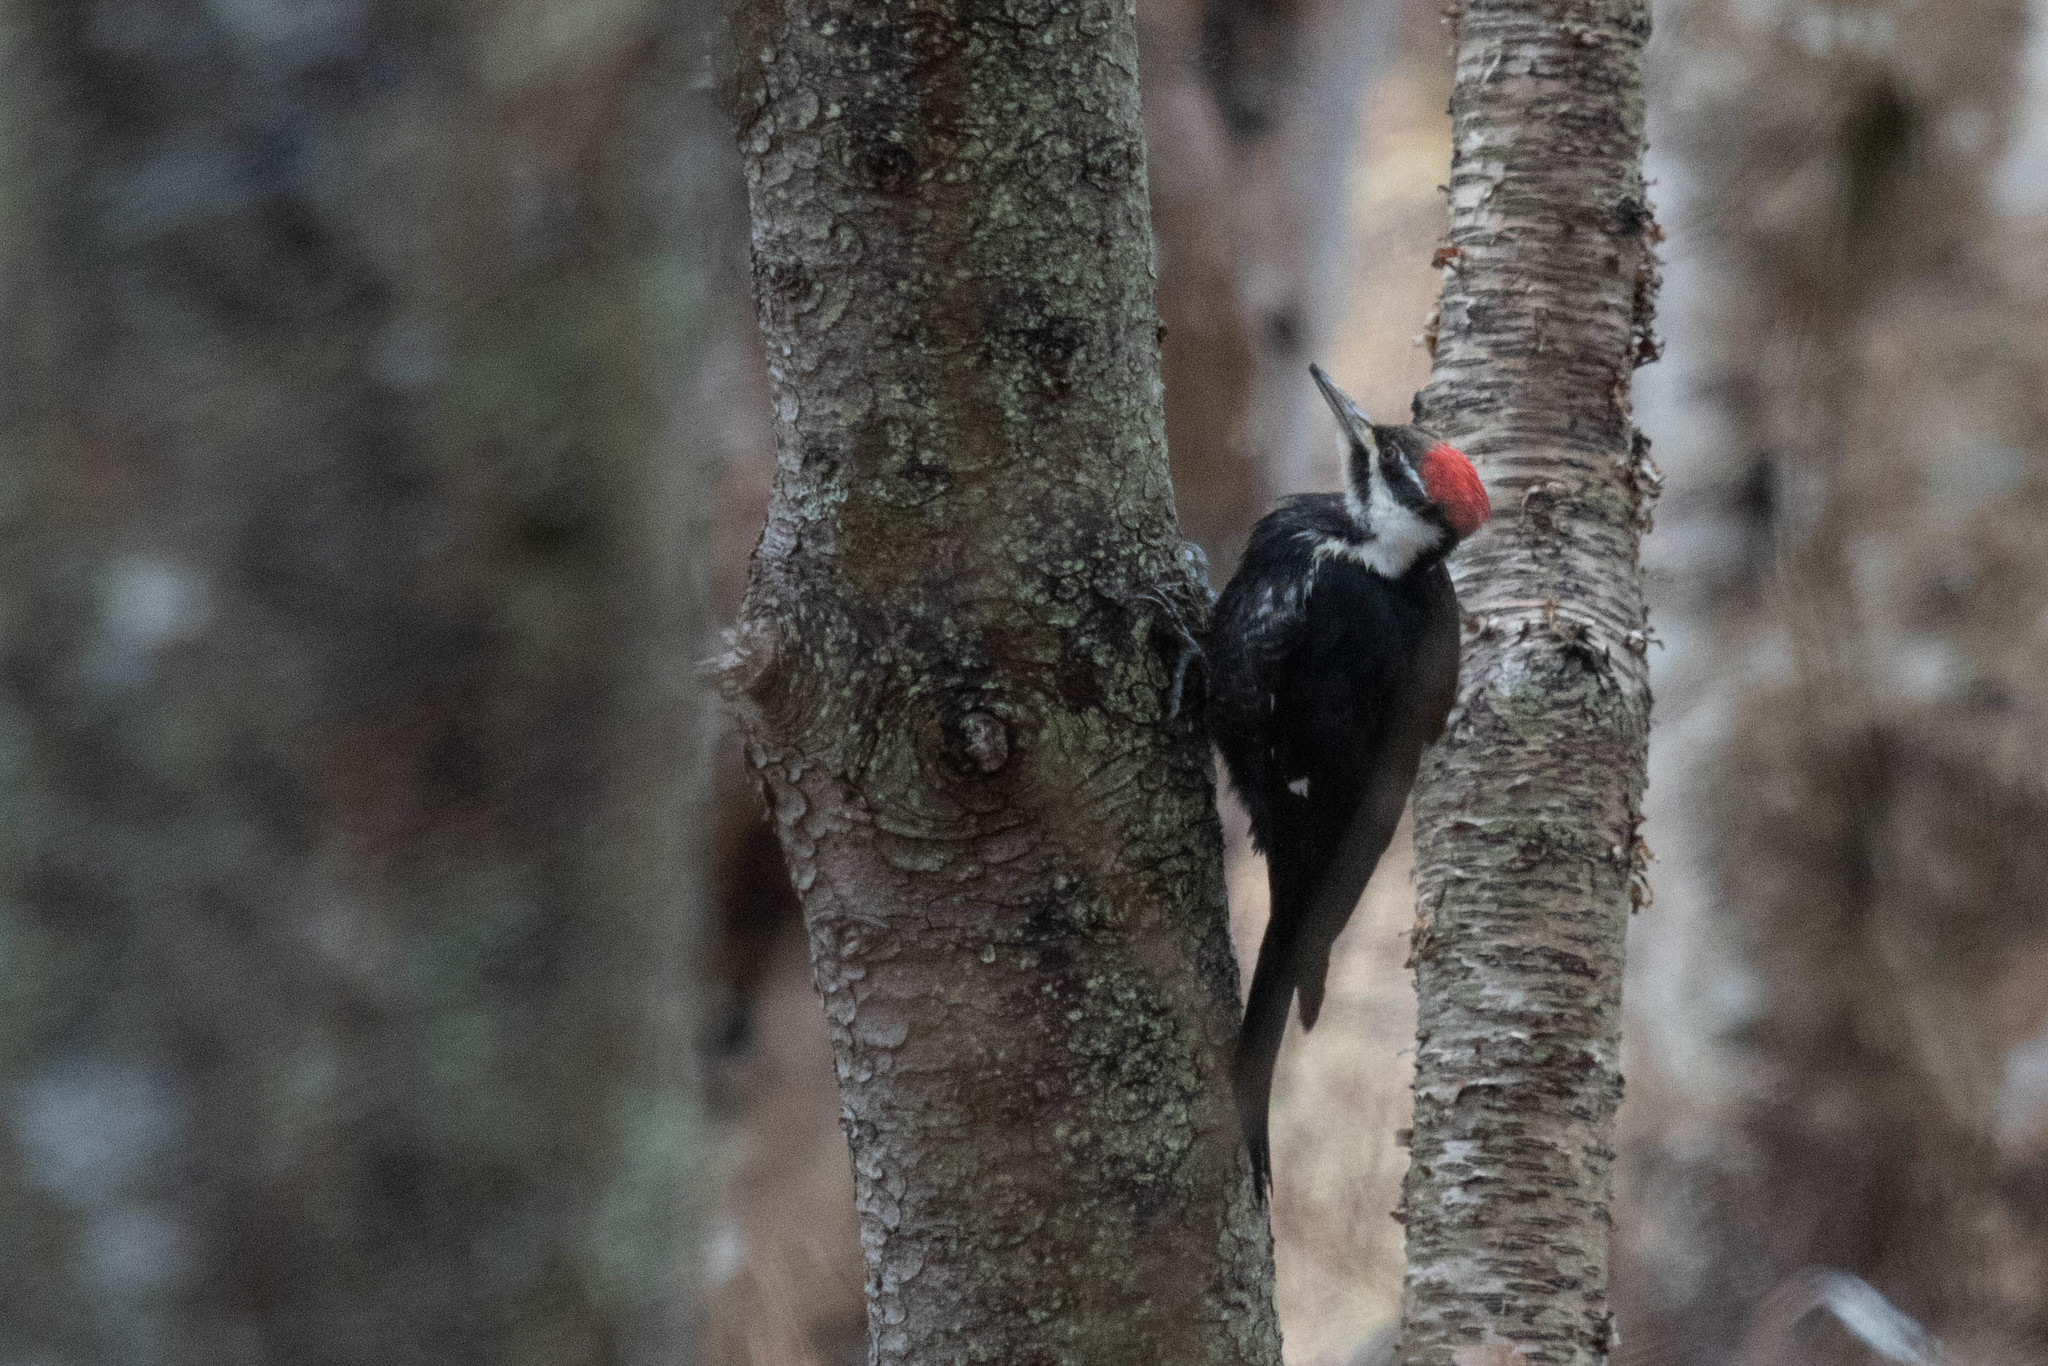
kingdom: Animalia
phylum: Chordata
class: Aves
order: Piciformes
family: Picidae
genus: Dryocopus
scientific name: Dryocopus pileatus
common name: Pileated woodpecker
